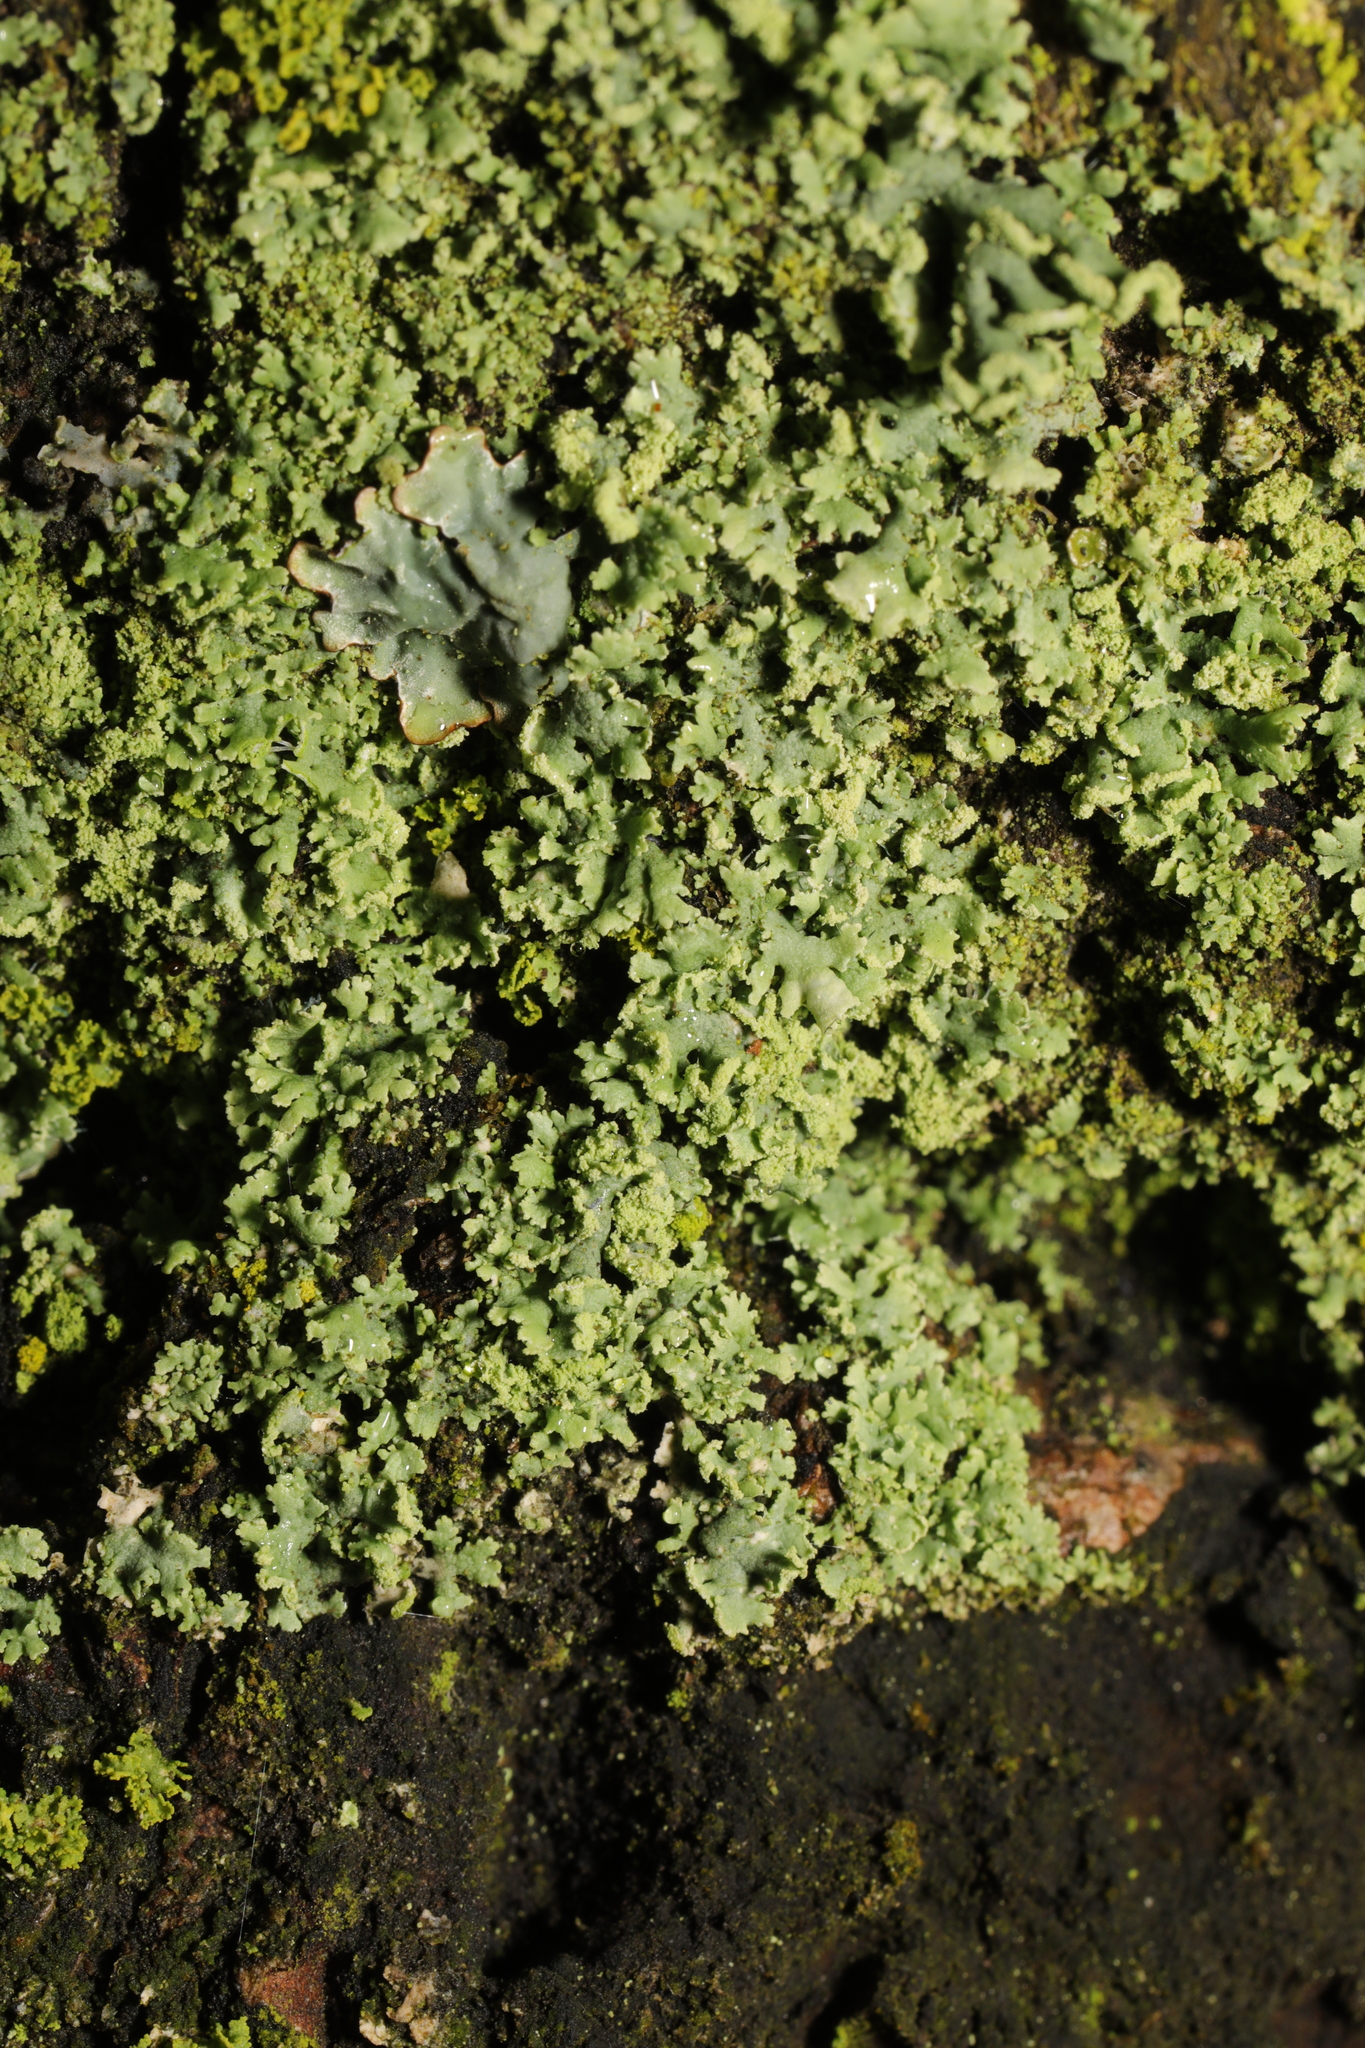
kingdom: Fungi
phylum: Ascomycota
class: Lecanoromycetes
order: Caliciales
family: Physciaceae
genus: Physcia
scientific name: Physcia dubia
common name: Powder-tipped rosette lichen
